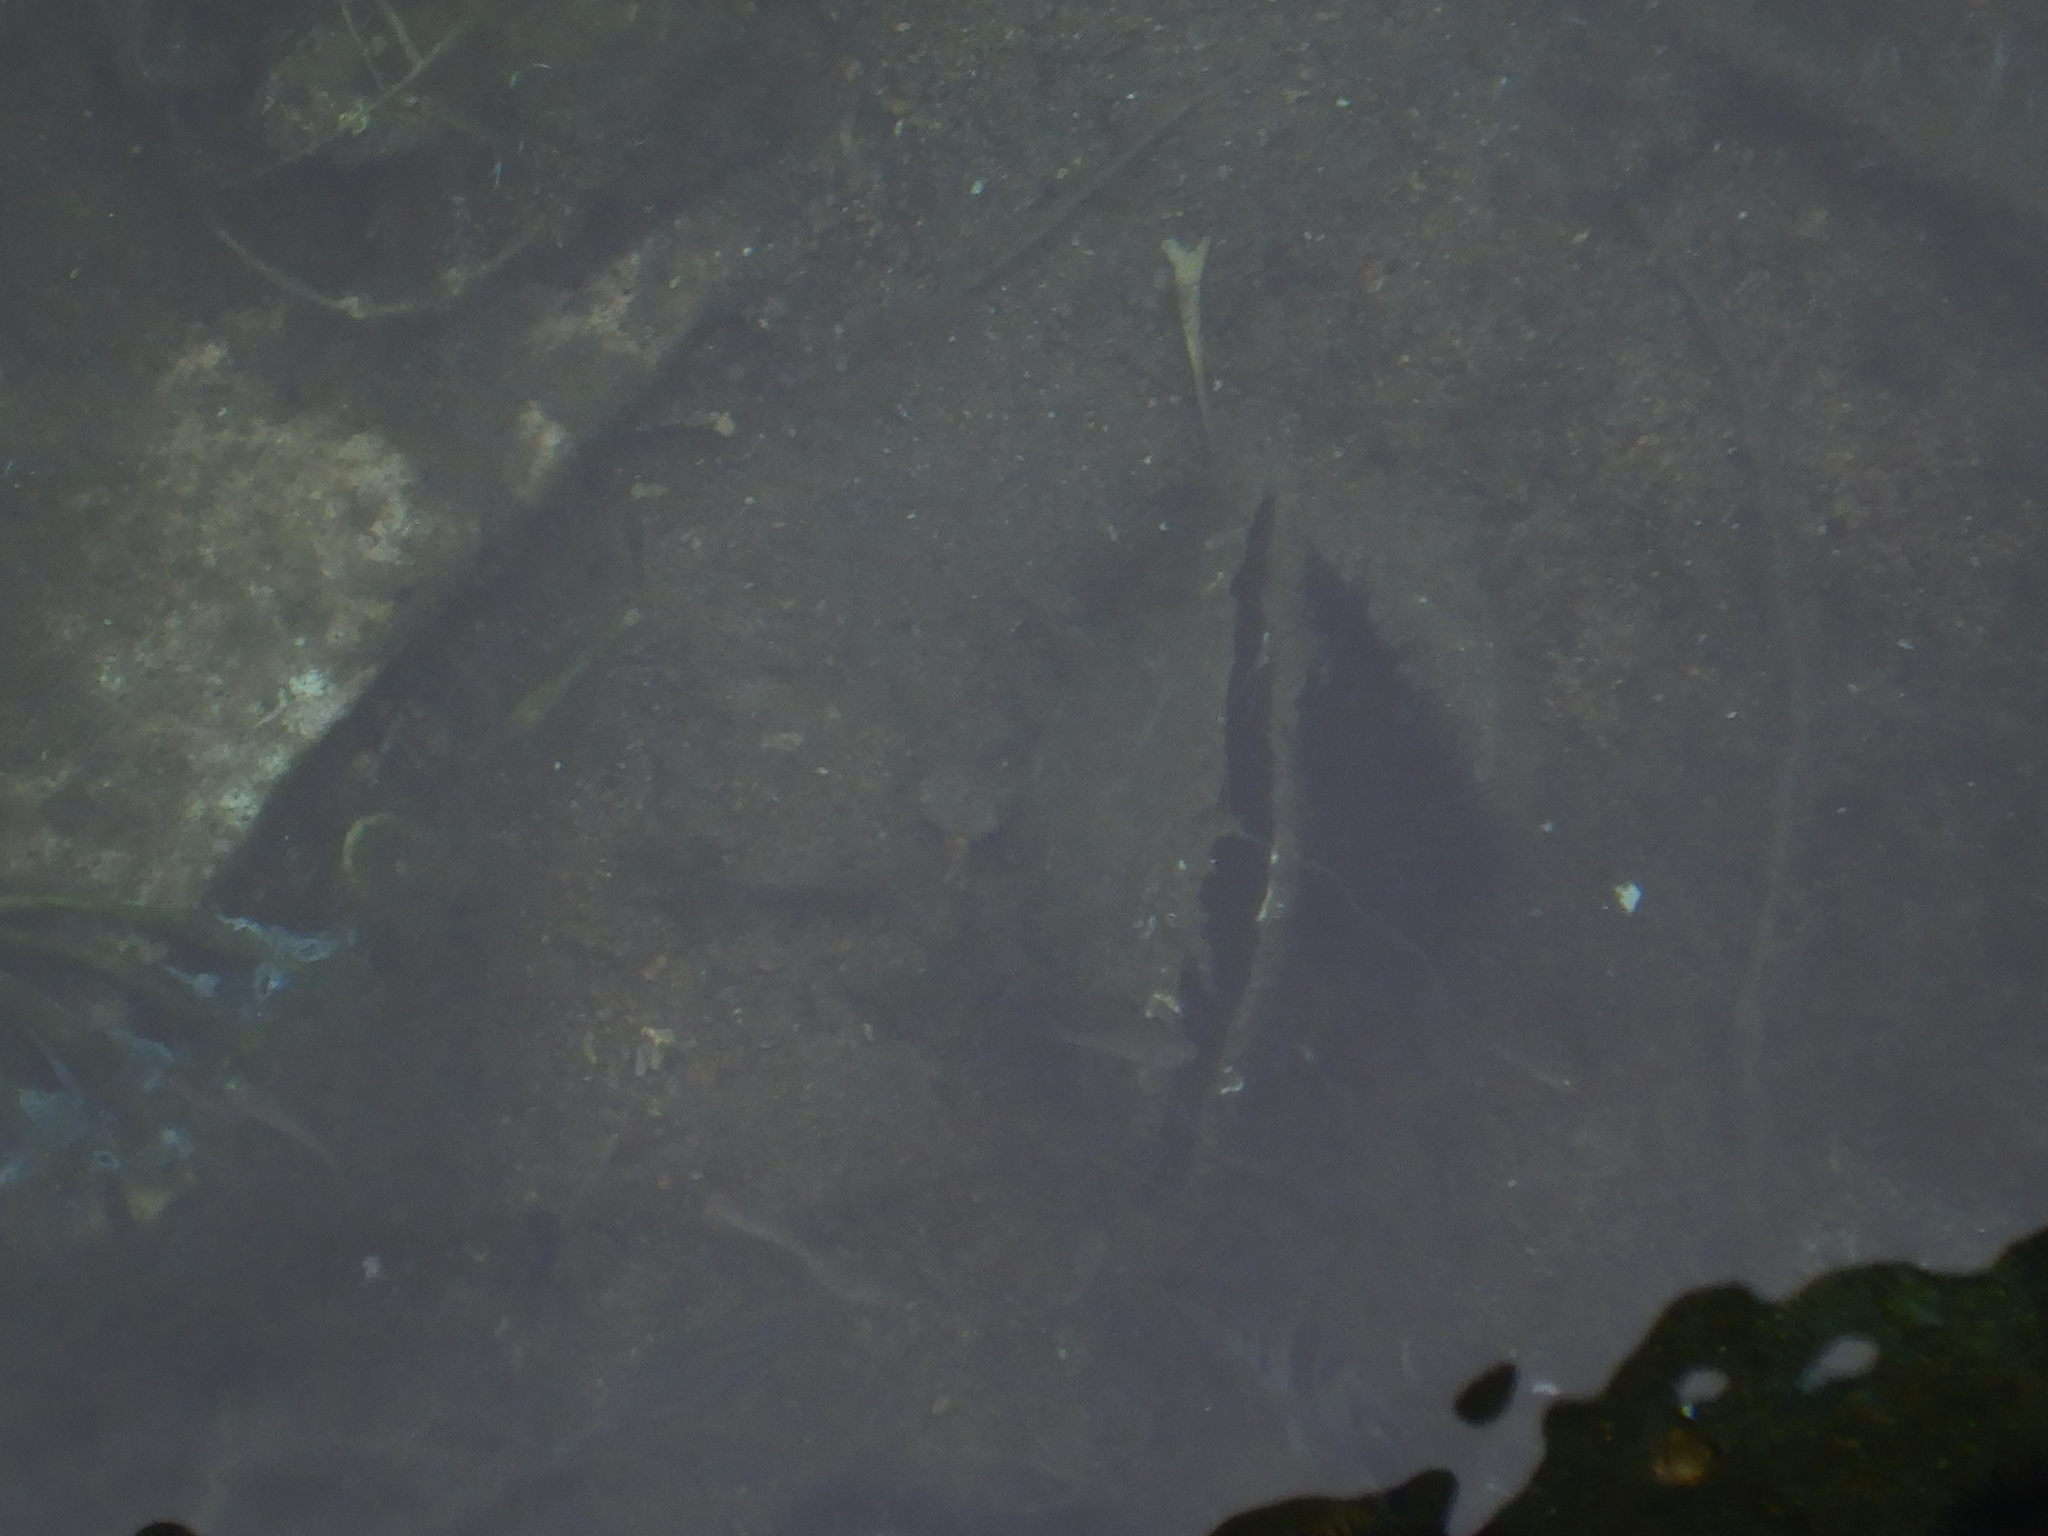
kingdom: Animalia
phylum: Mollusca
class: Bivalvia
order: Ostreida
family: Pinnidae
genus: Pinna
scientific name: Pinna nobilis
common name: Fan mussel
